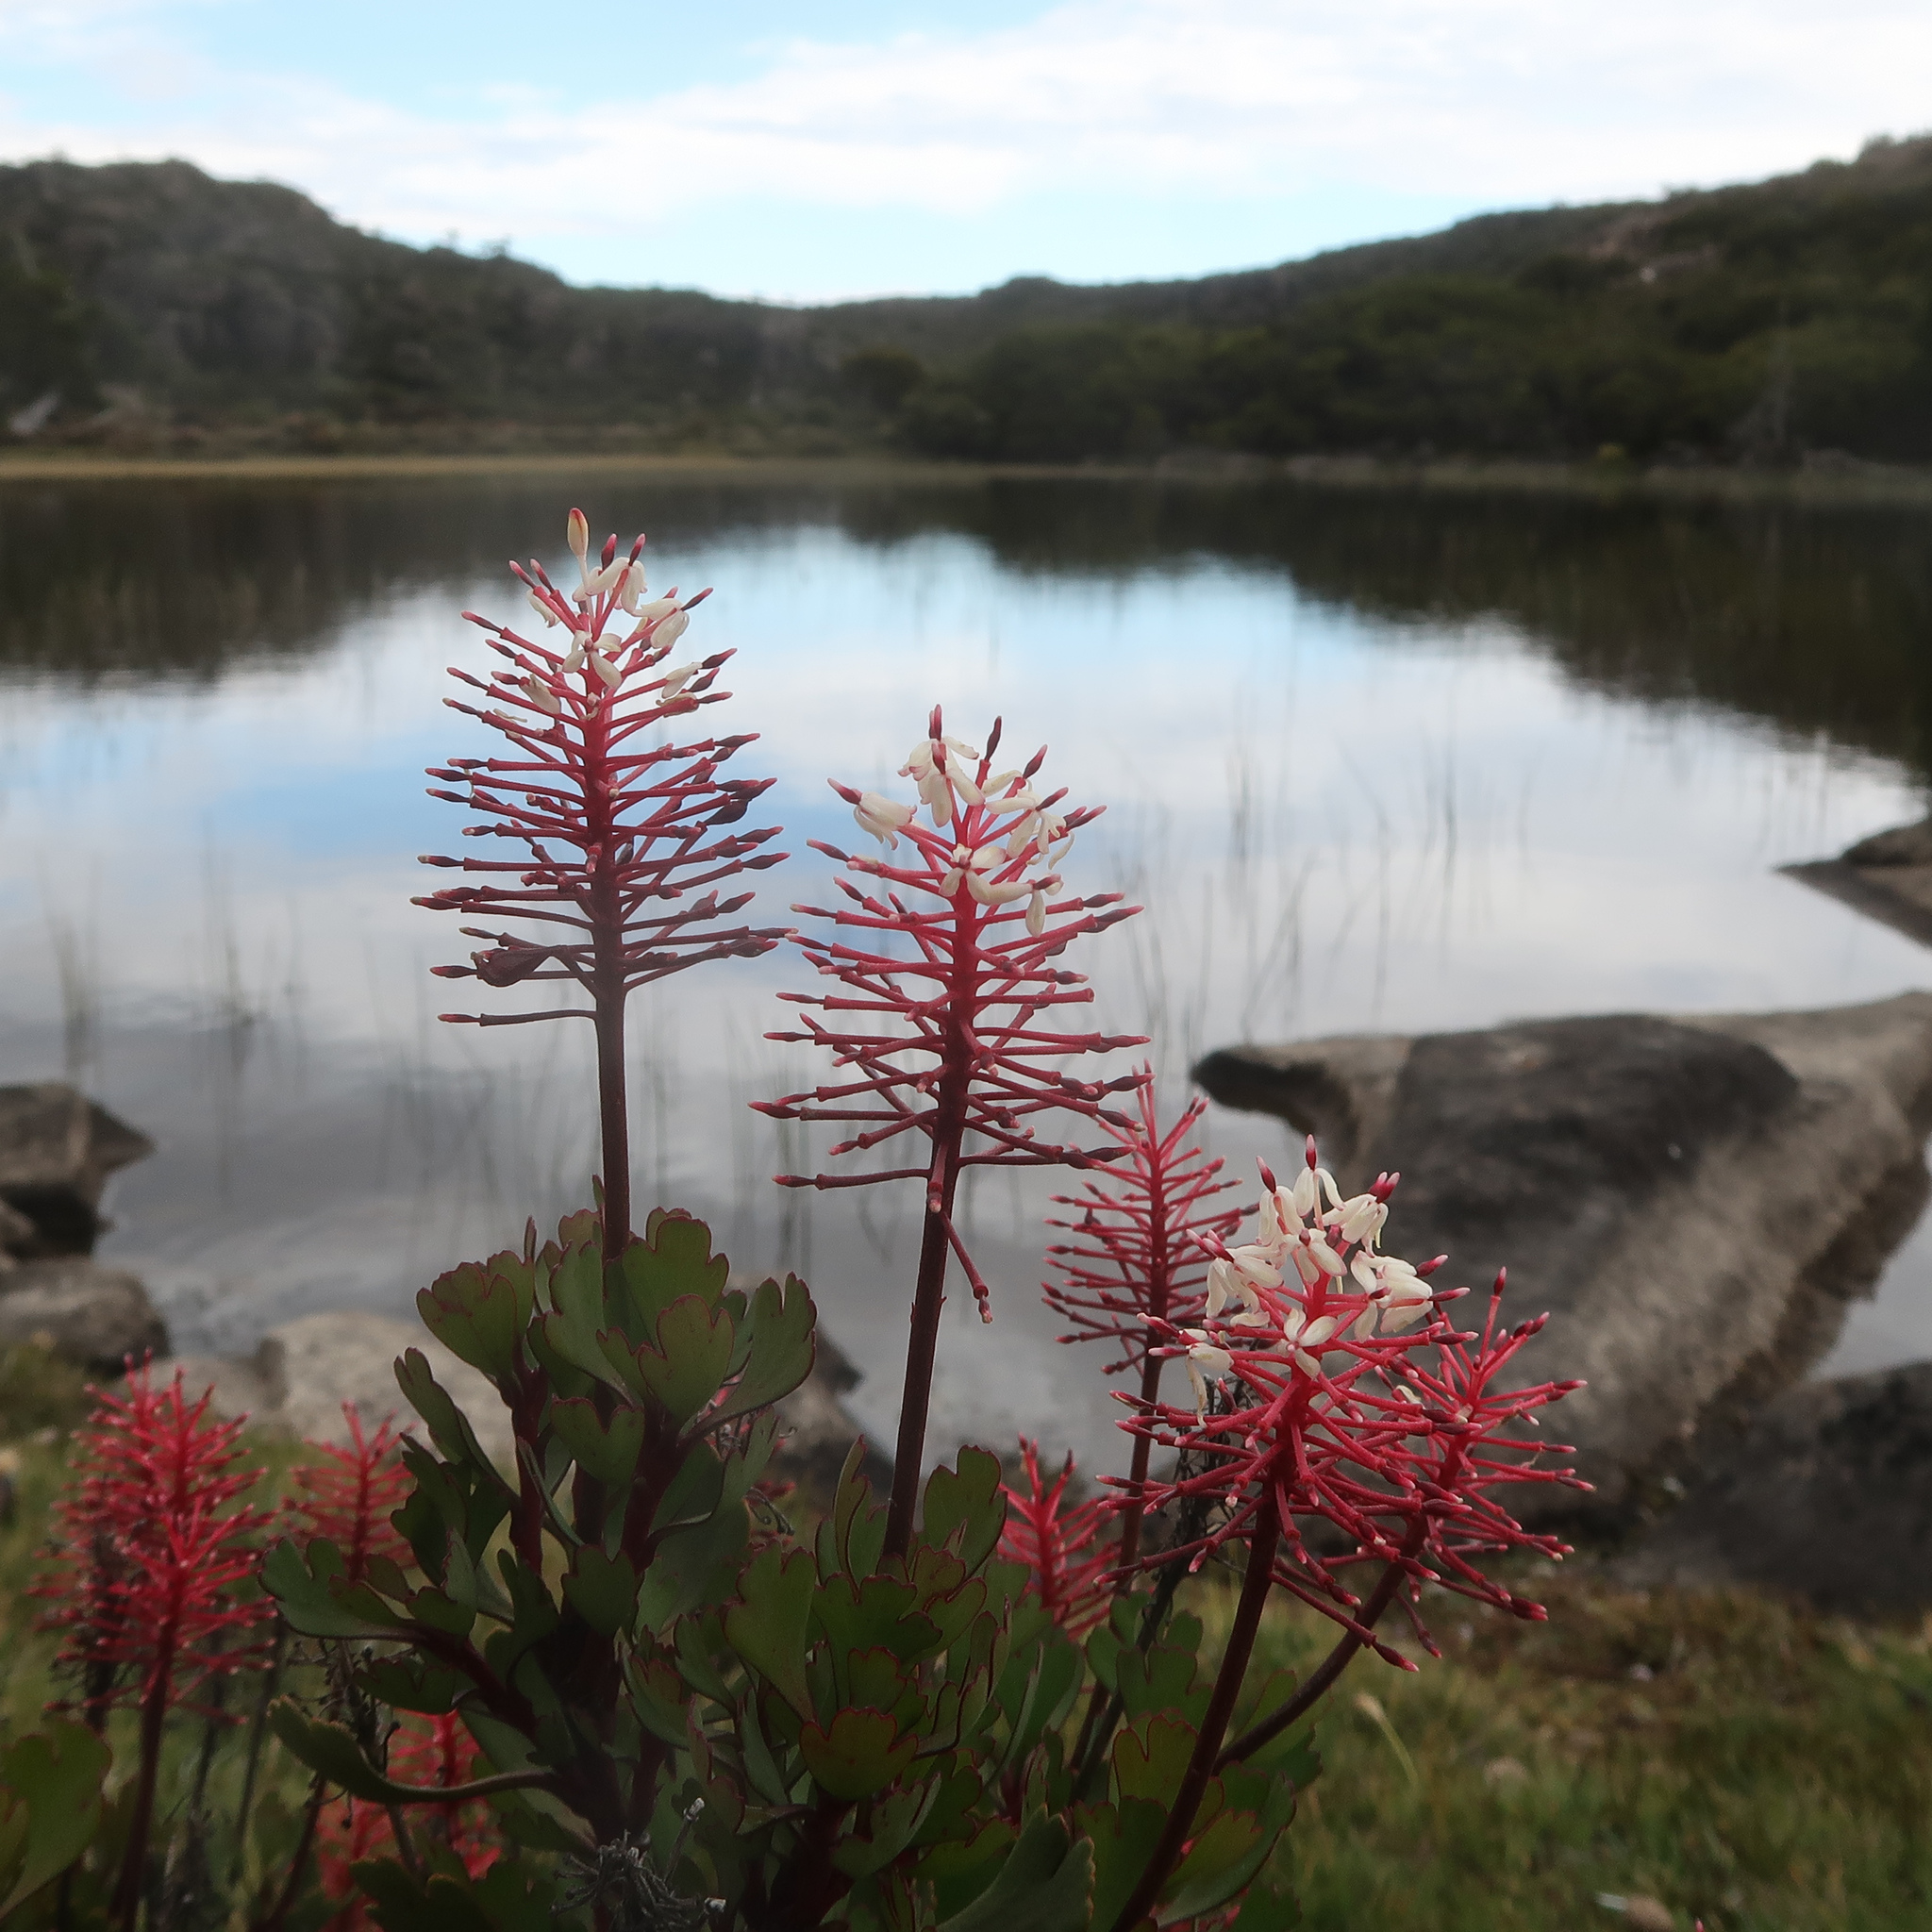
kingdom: Plantae
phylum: Tracheophyta
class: Magnoliopsida
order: Proteales
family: Proteaceae
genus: Bellendena
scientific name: Bellendena montana
